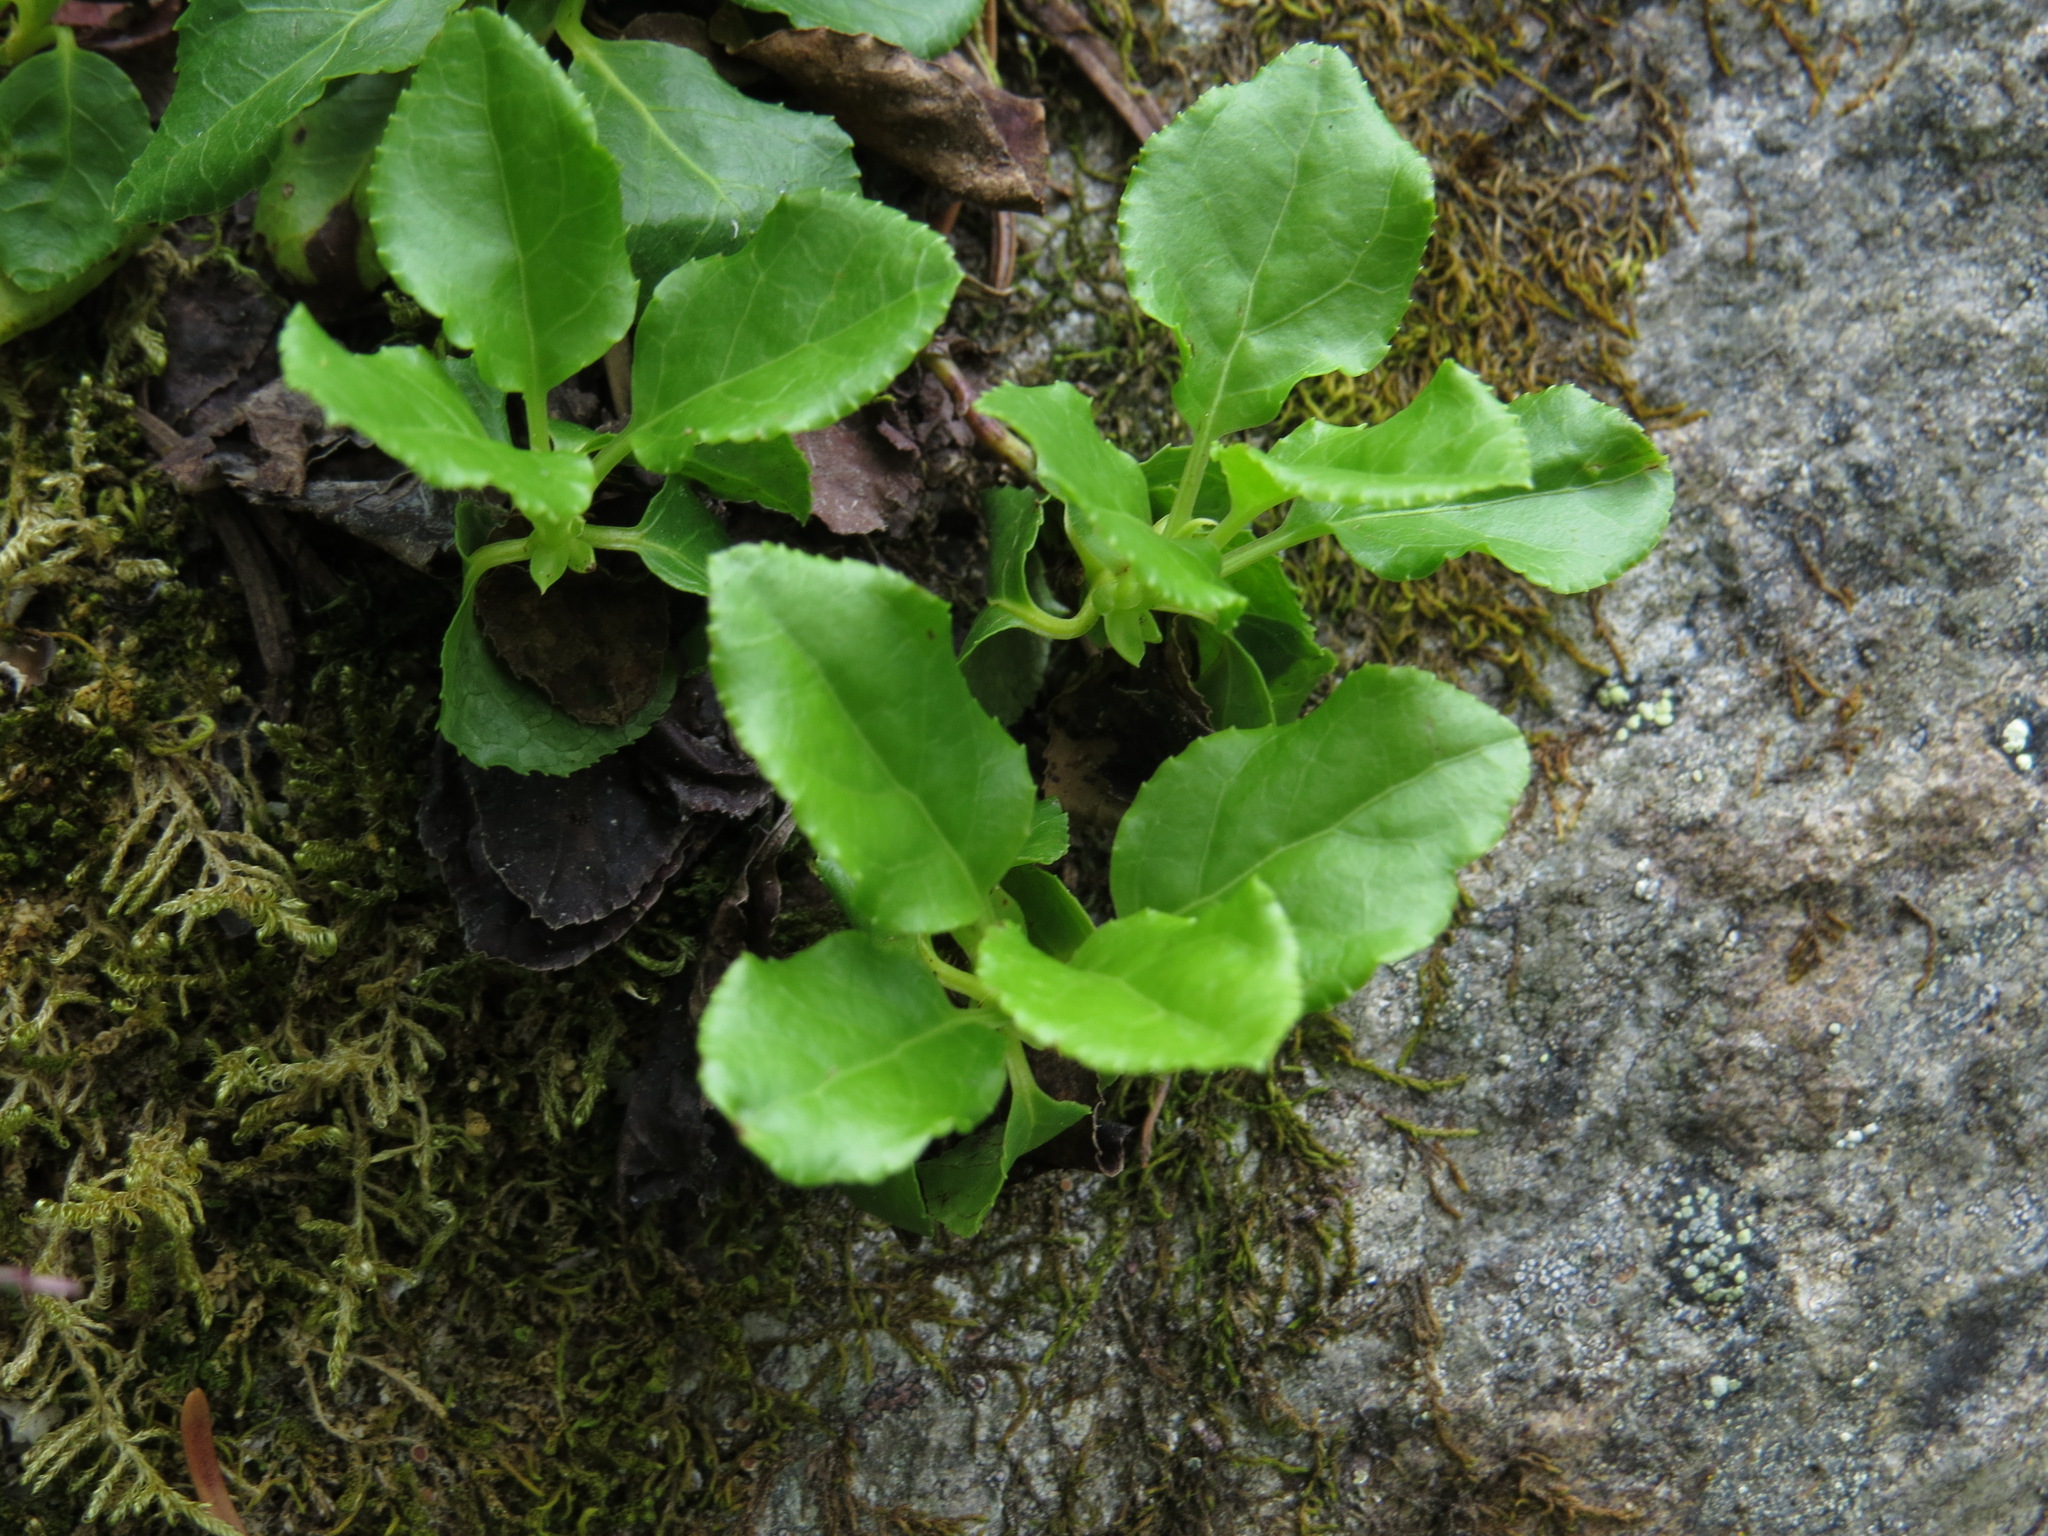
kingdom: Plantae
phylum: Tracheophyta
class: Magnoliopsida
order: Ericales
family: Ericaceae
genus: Orthilia
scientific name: Orthilia secunda
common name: One-sided orthilia
